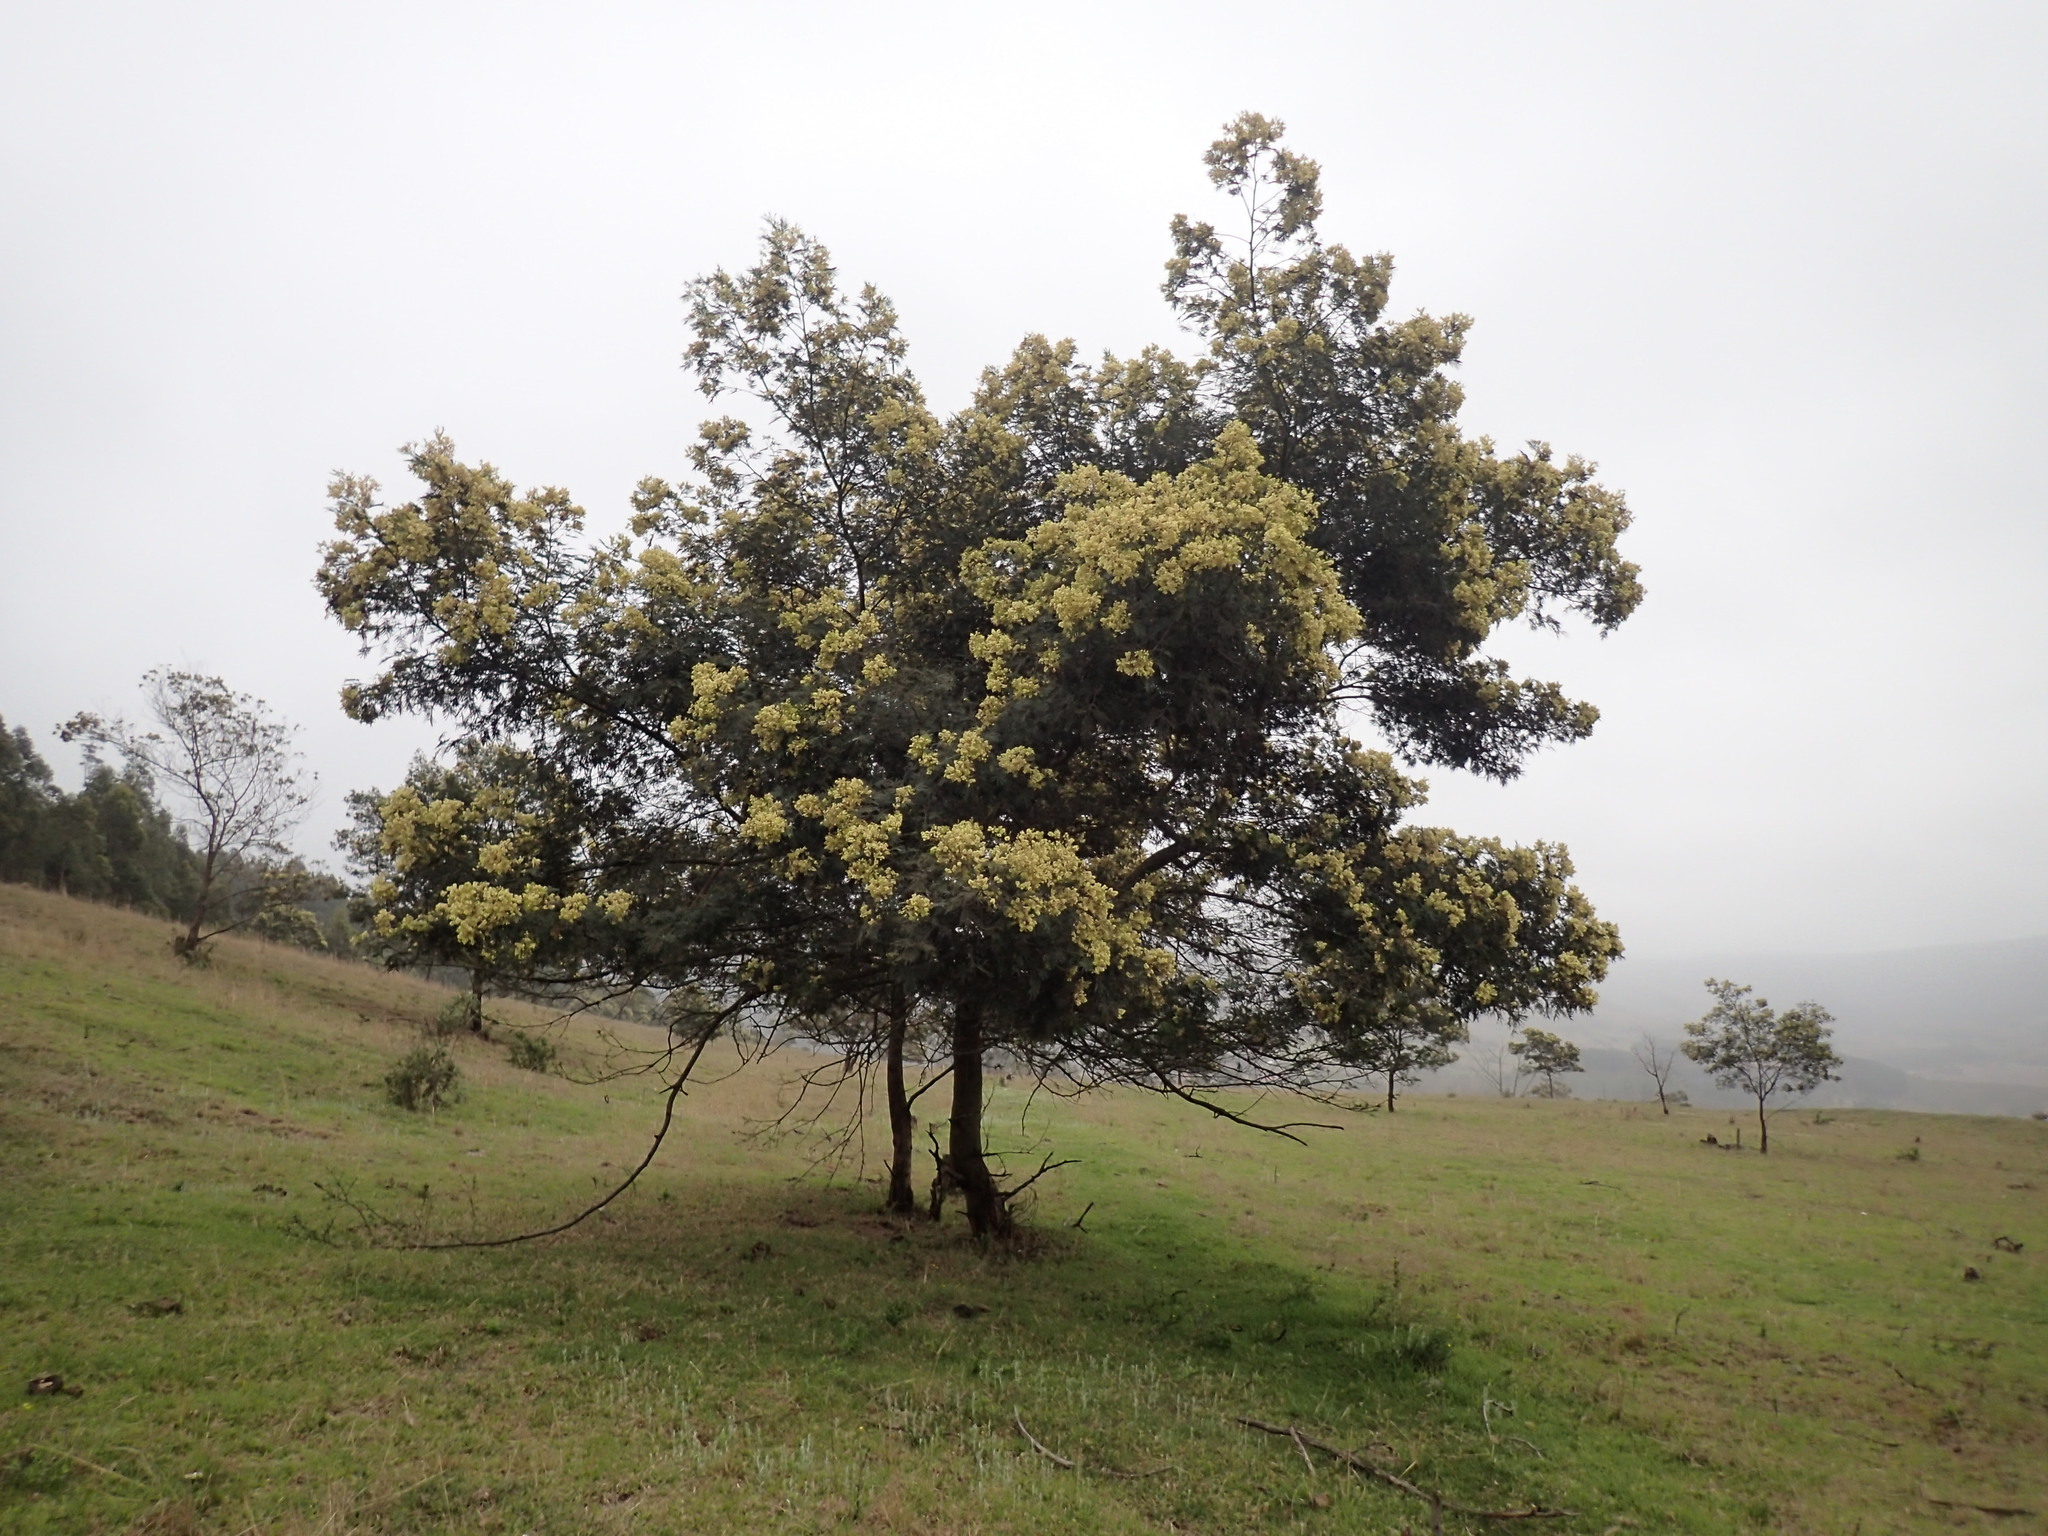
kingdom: Plantae
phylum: Tracheophyta
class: Magnoliopsida
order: Fabales
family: Fabaceae
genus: Acacia
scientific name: Acacia mearnsii
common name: Black wattle
